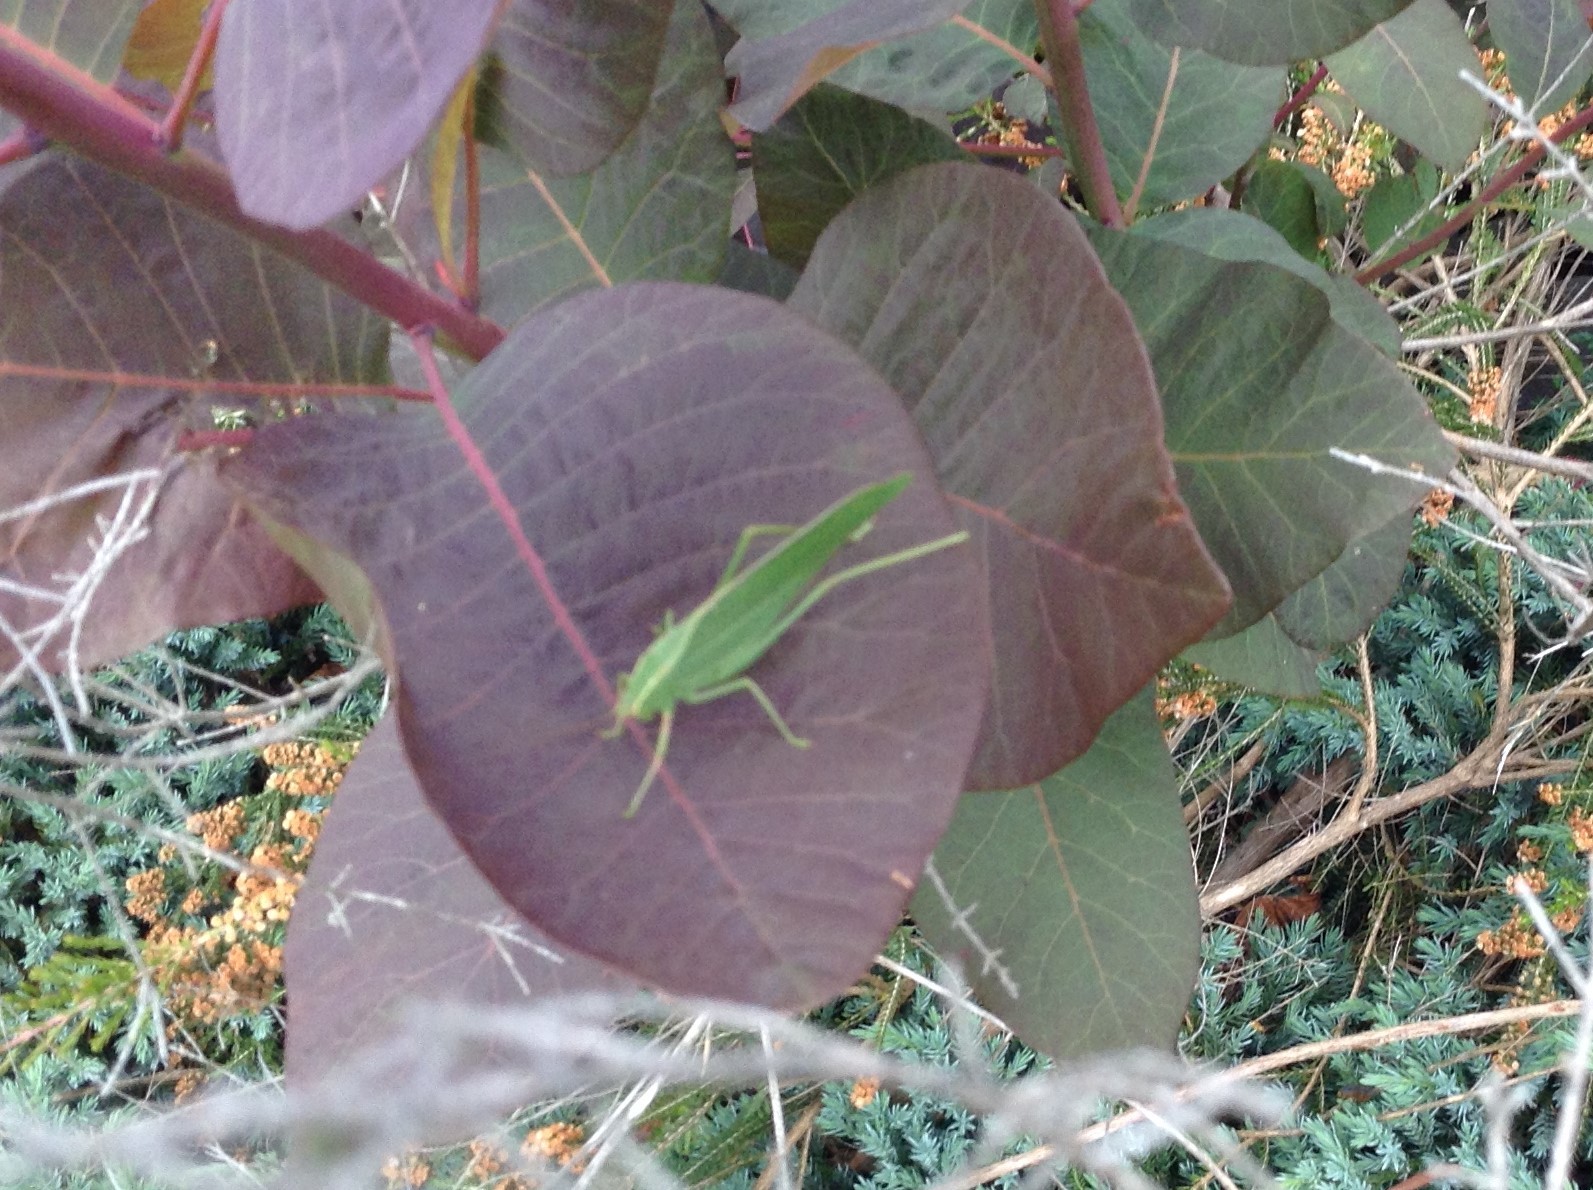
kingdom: Animalia
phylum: Arthropoda
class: Insecta
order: Orthoptera
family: Tettigoniidae
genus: Caedicia
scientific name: Caedicia
